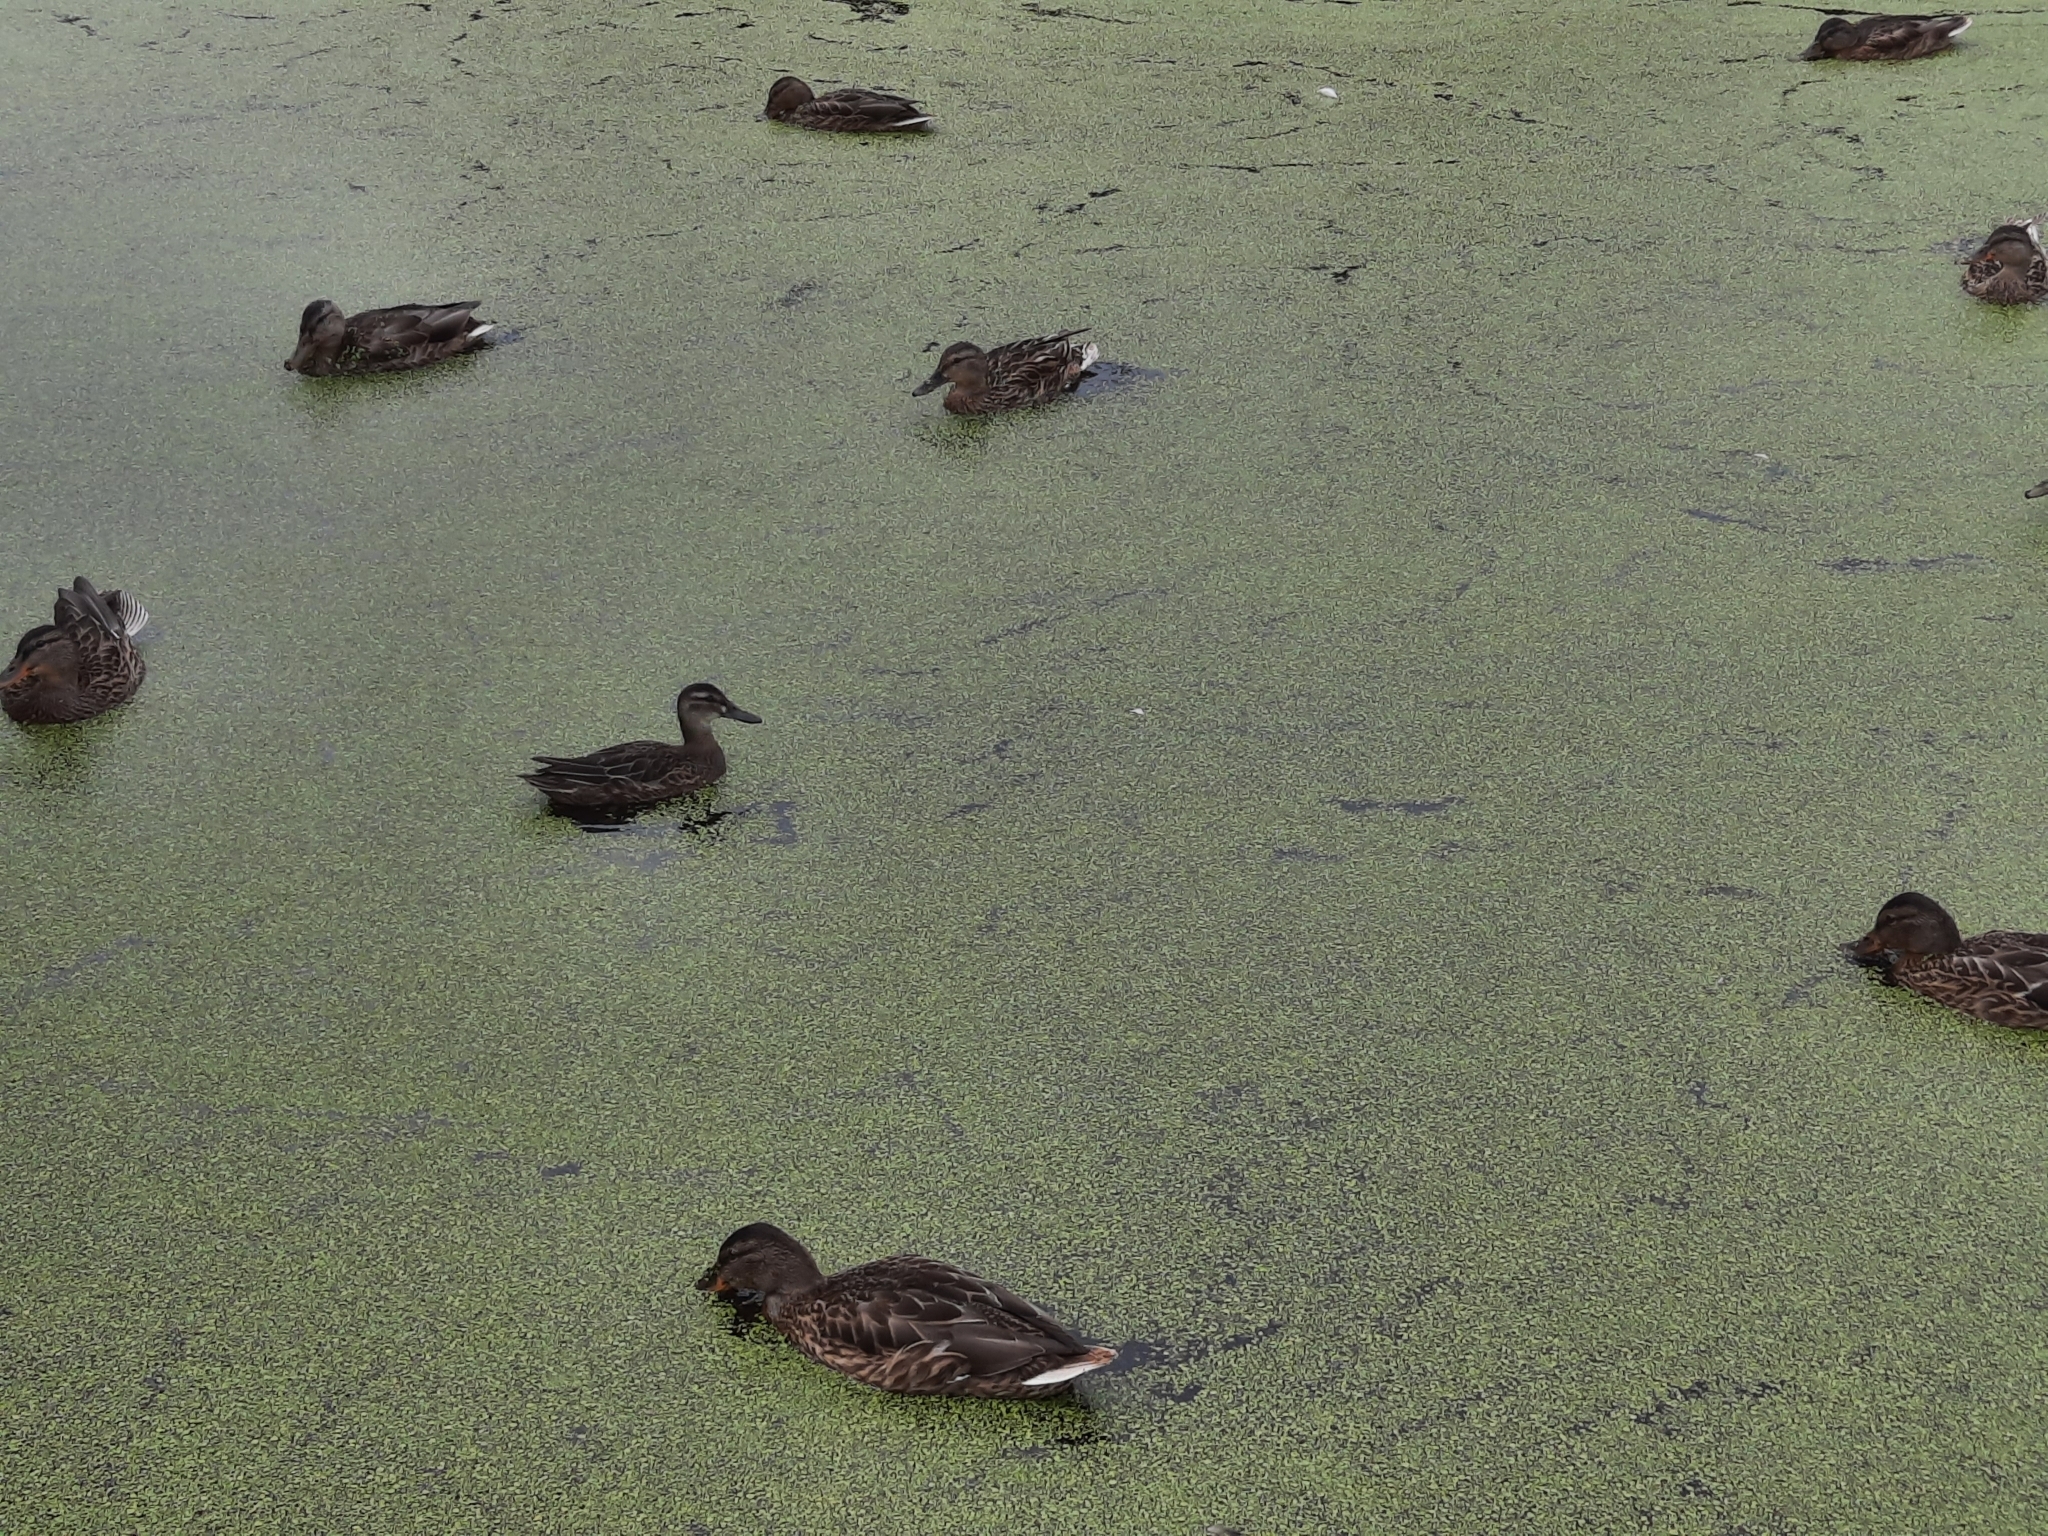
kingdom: Animalia
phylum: Chordata
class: Aves
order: Anseriformes
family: Anatidae
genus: Spatula
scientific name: Spatula querquedula
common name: Garganey
